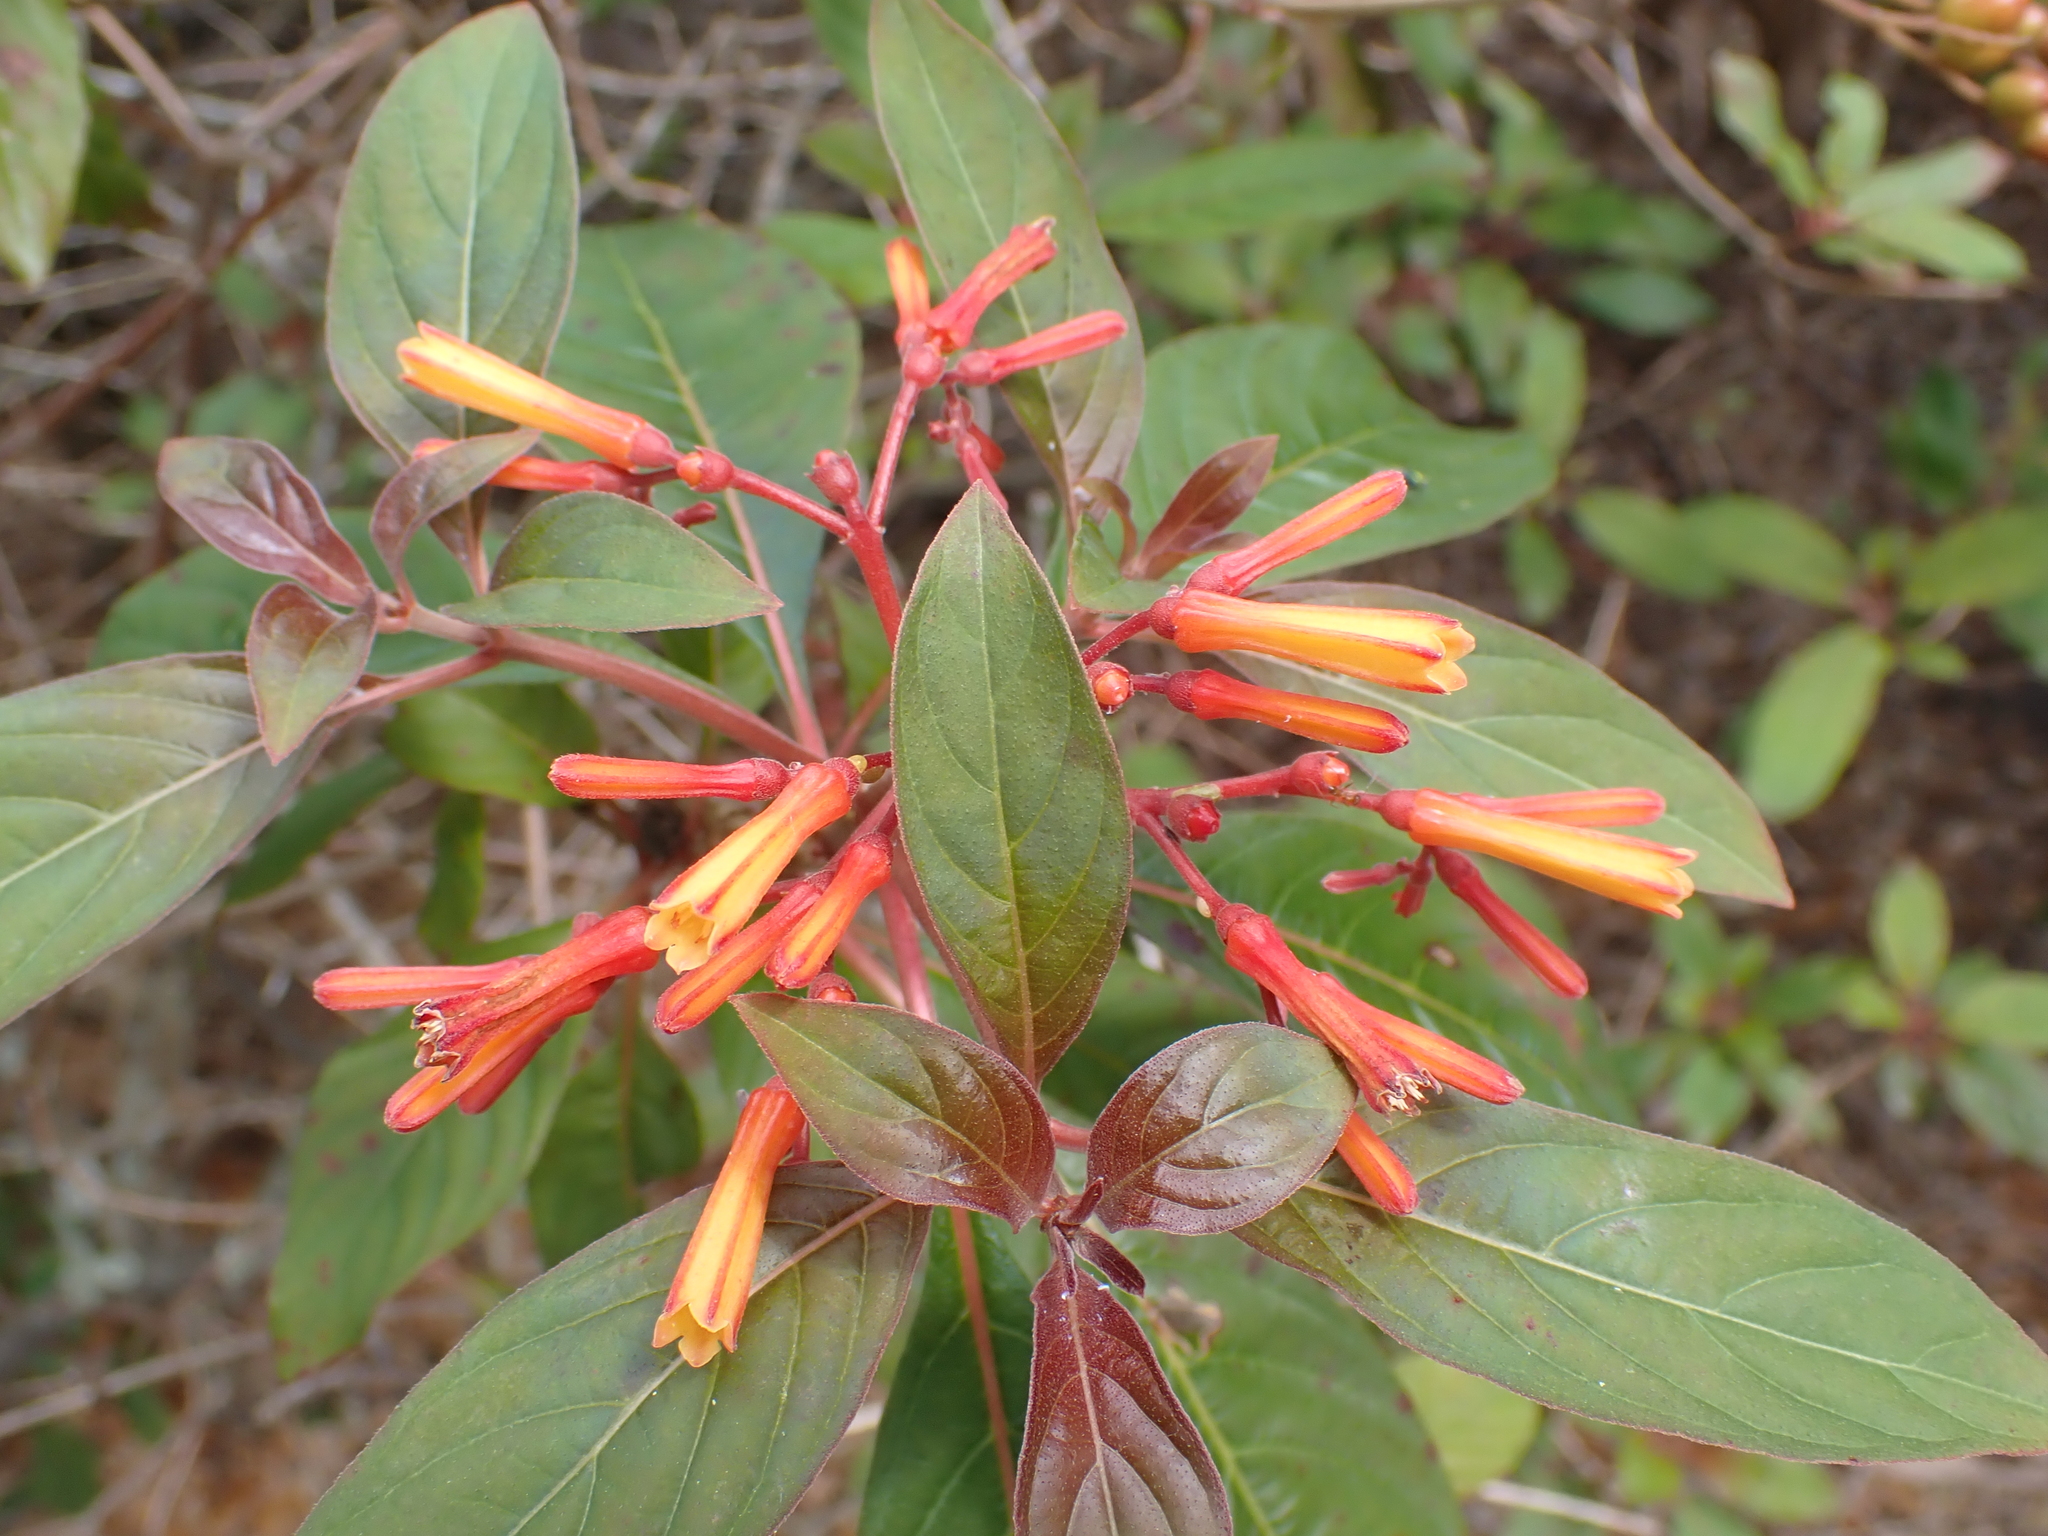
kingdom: Plantae
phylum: Tracheophyta
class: Magnoliopsida
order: Gentianales
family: Rubiaceae
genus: Hamelia
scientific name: Hamelia patens
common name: Redhead
